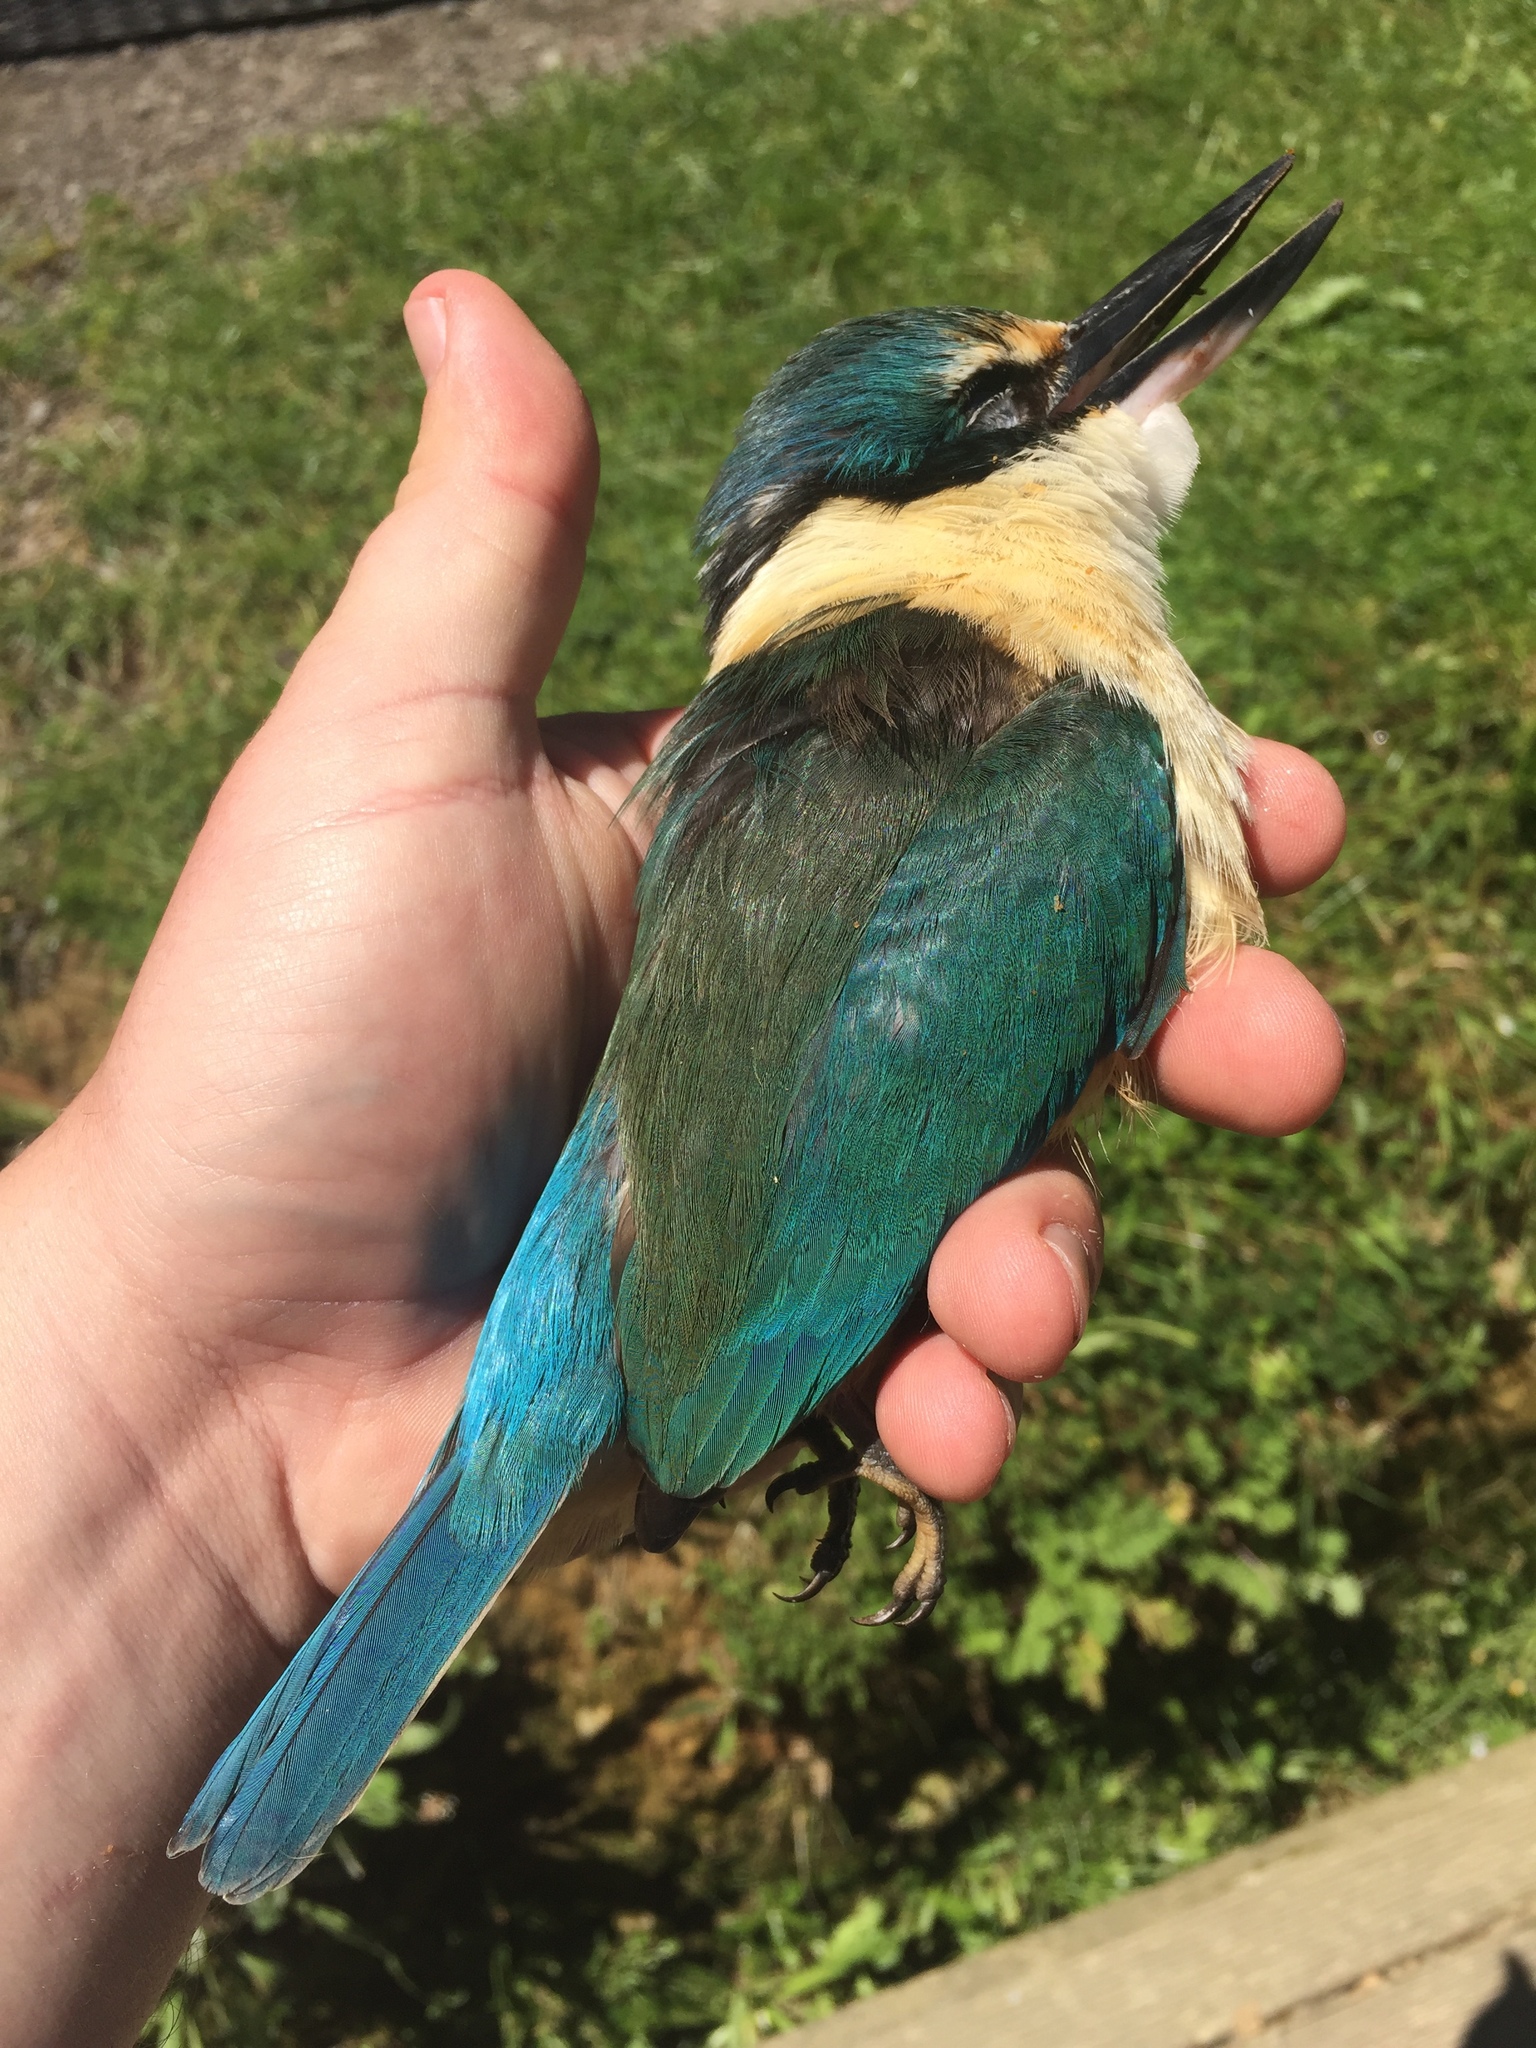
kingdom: Animalia
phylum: Chordata
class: Aves
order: Coraciiformes
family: Alcedinidae
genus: Todiramphus
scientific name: Todiramphus sanctus
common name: Sacred kingfisher
